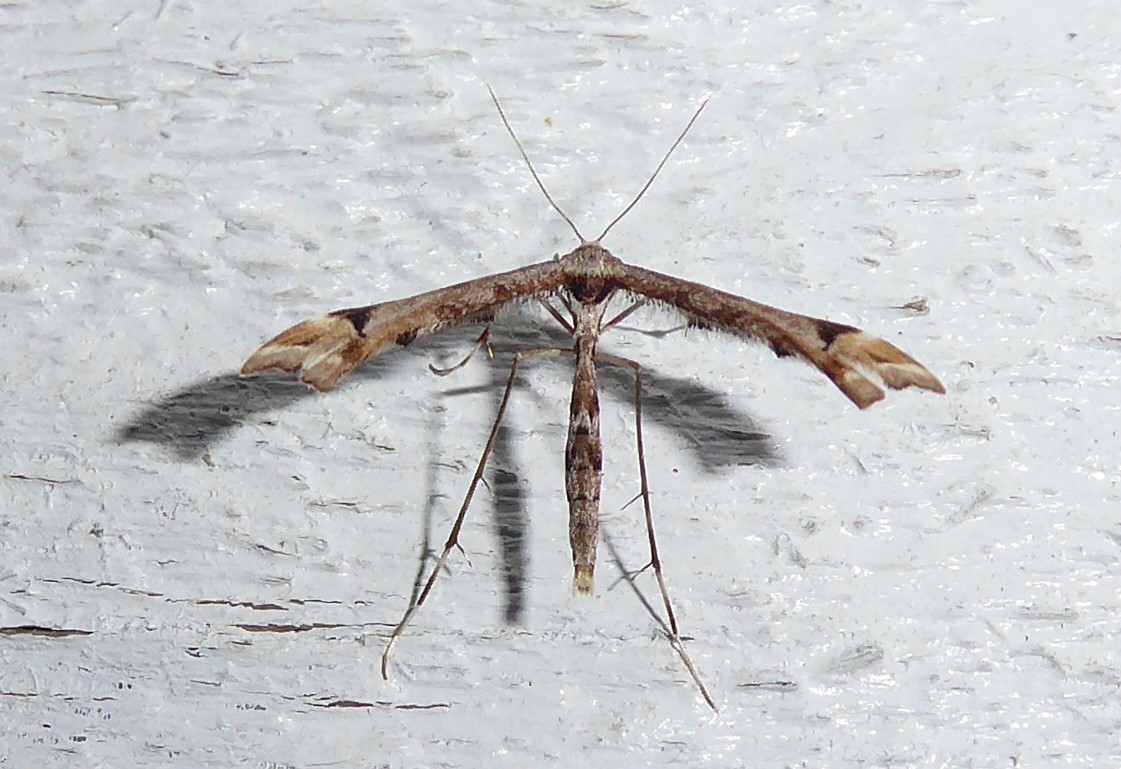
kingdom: Animalia
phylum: Arthropoda
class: Insecta
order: Lepidoptera
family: Pterophoridae
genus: Amblyptilia
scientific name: Amblyptilia falcatalis
